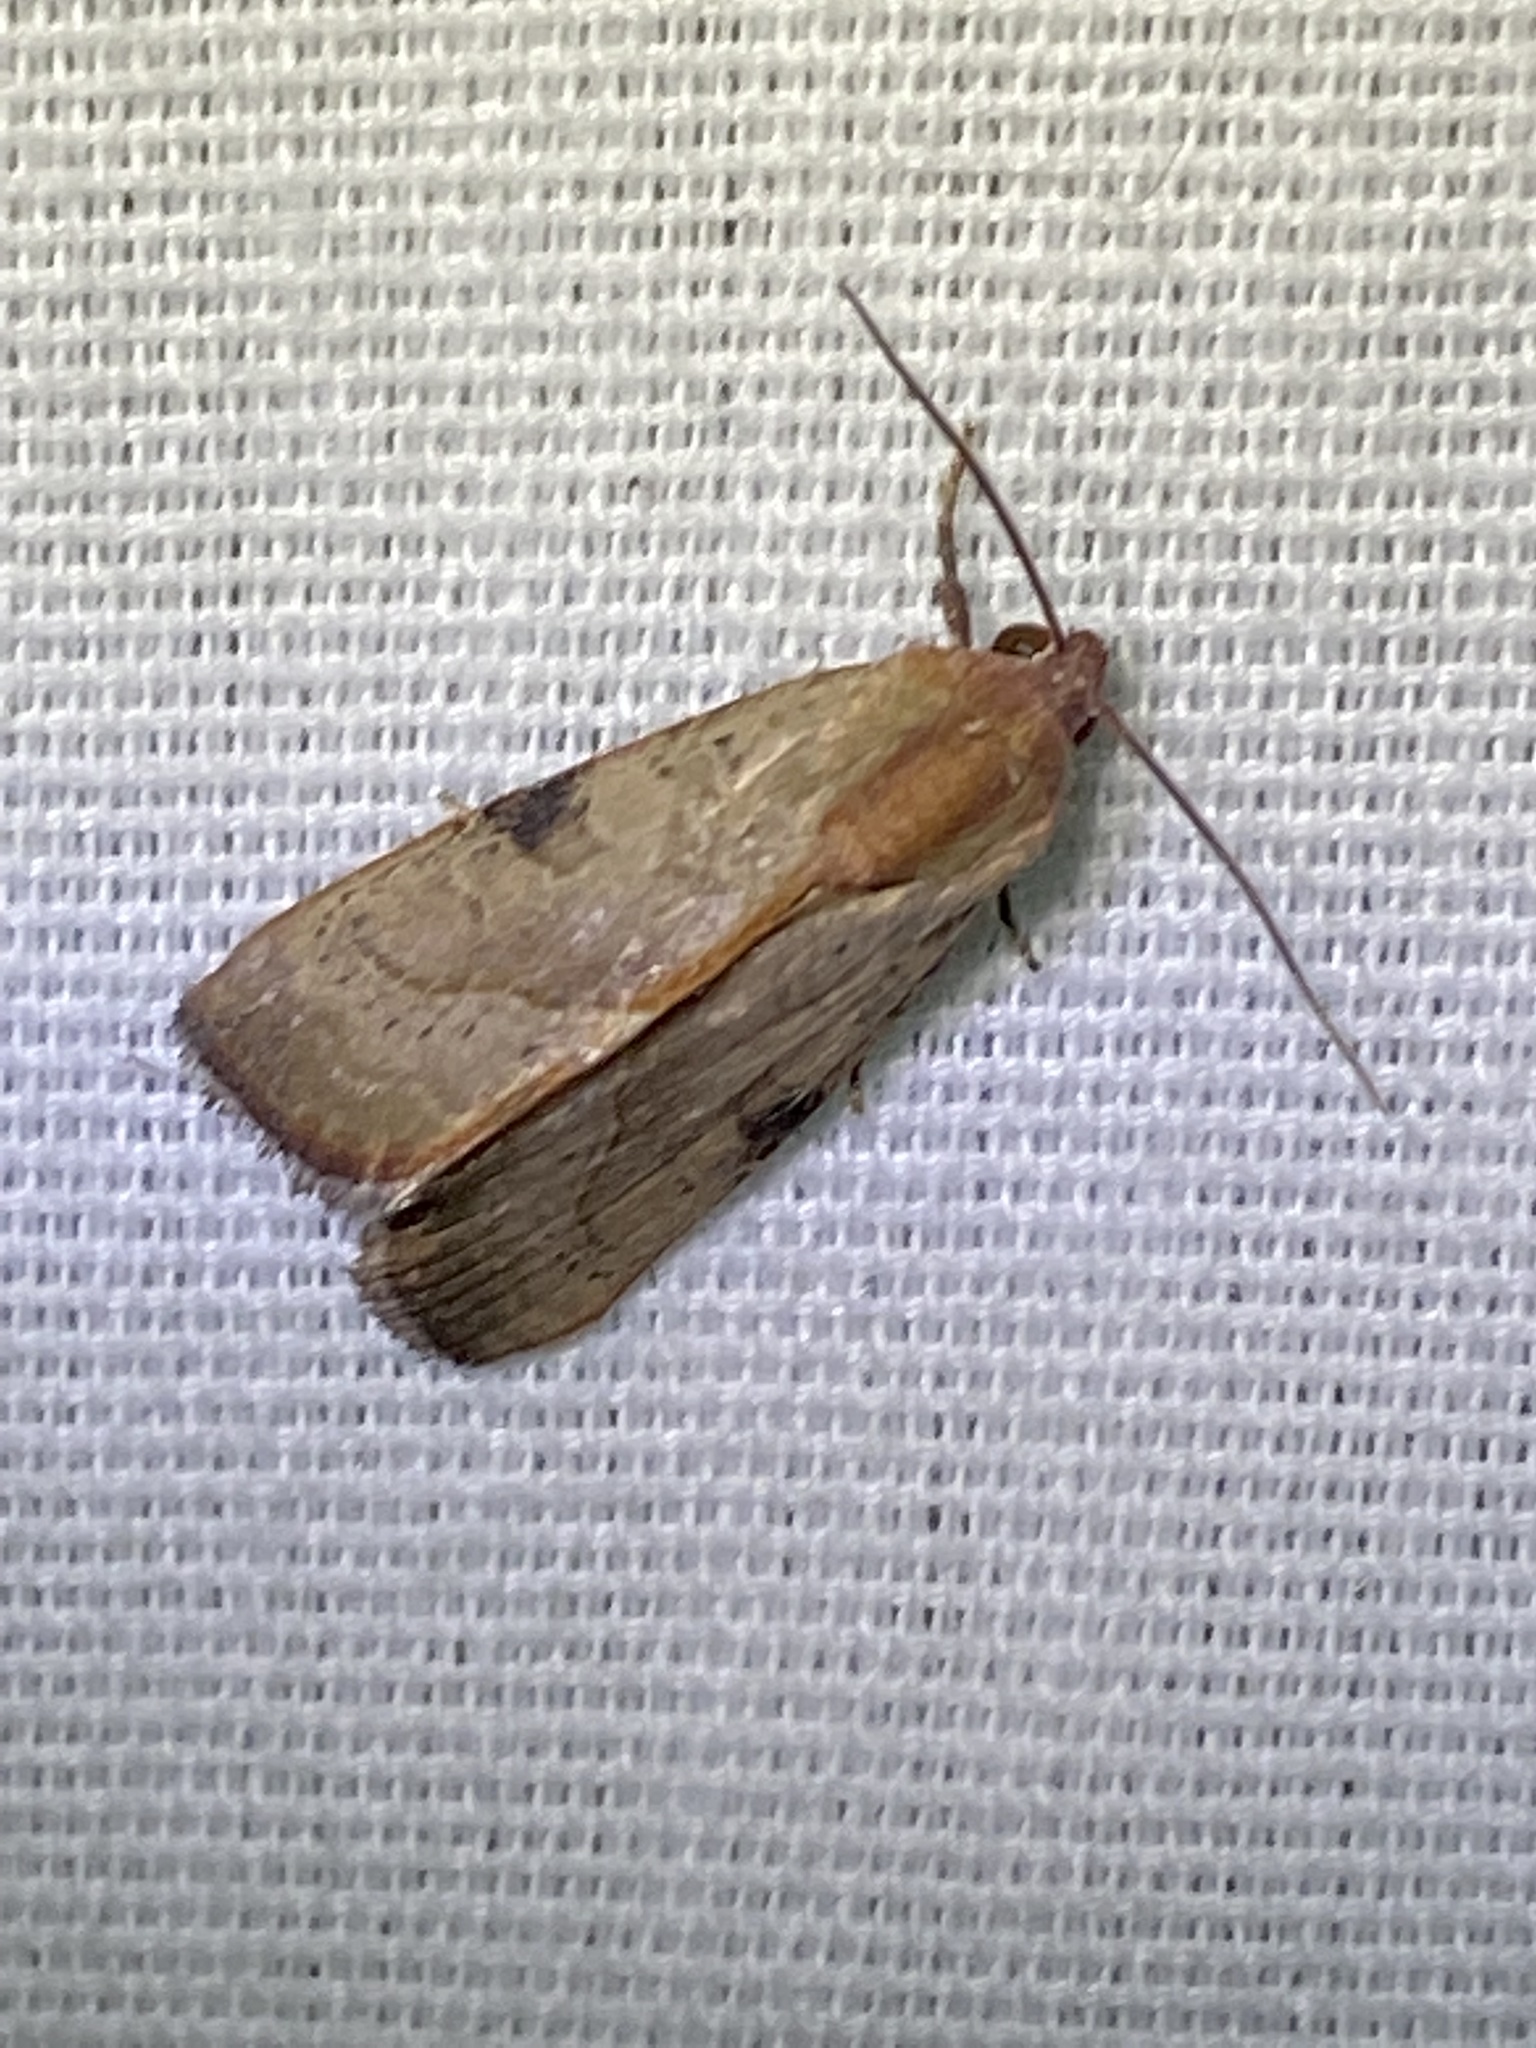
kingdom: Animalia
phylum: Arthropoda
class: Insecta
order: Lepidoptera
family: Noctuidae
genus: Galgula
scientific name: Galgula partita
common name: Wedgeling
